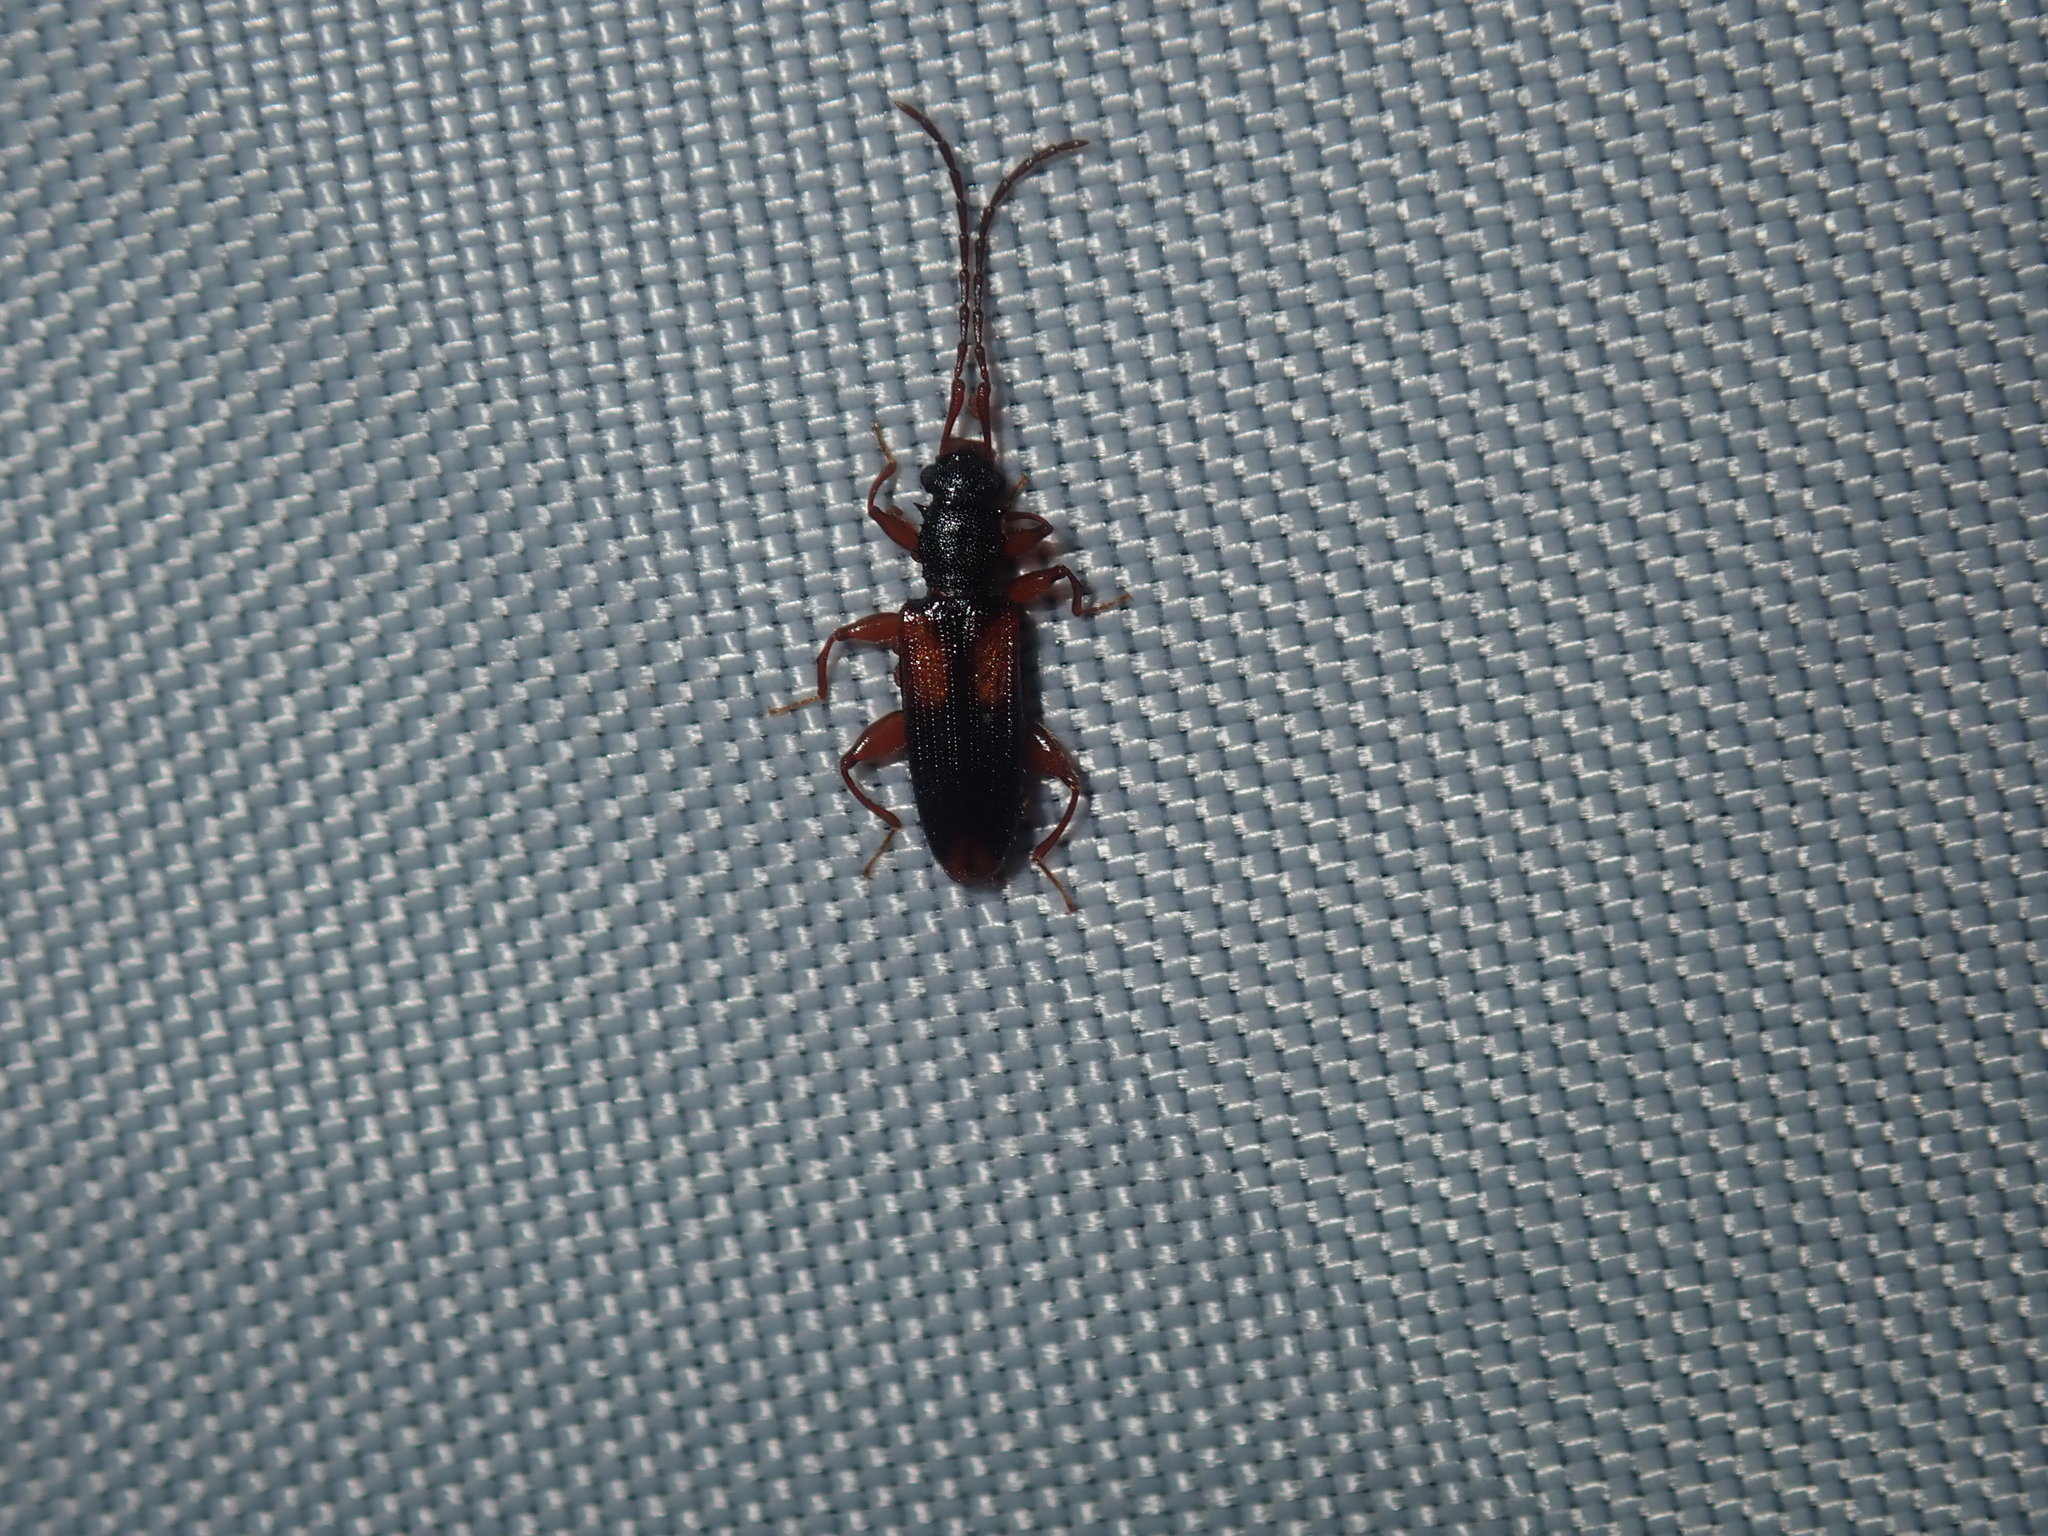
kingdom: Animalia
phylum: Arthropoda
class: Insecta
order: Coleoptera
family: Silvanidae
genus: Macrohyliota
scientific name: Macrohyliota militaris
